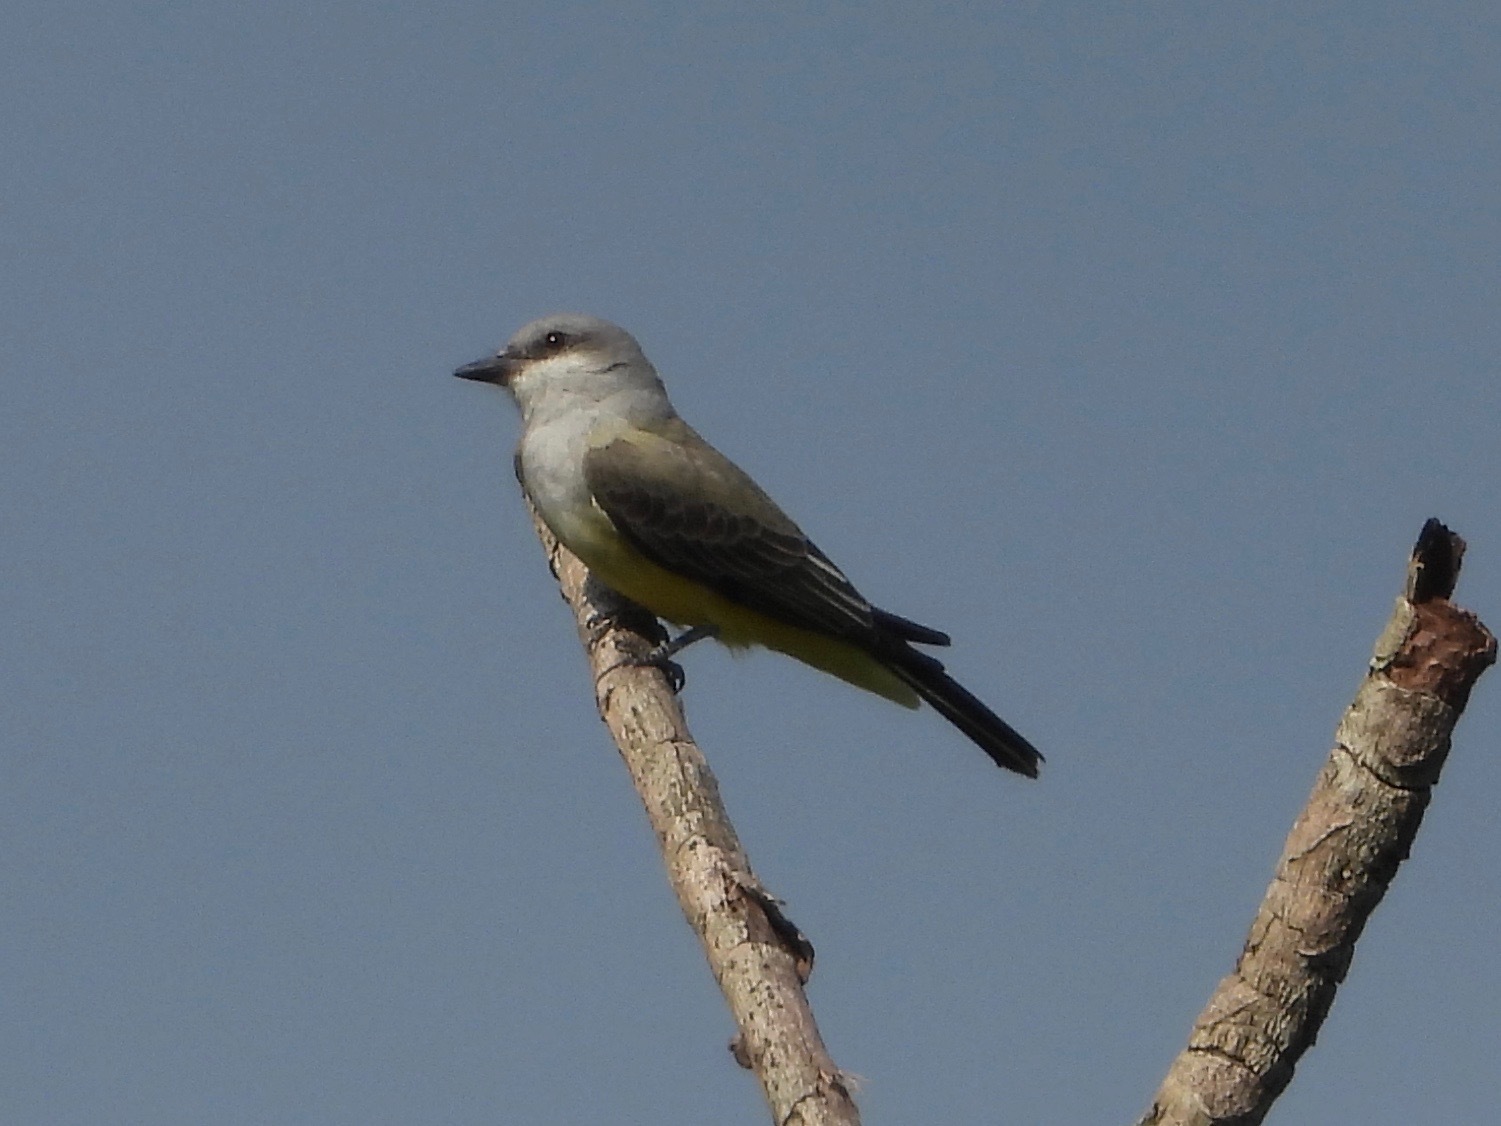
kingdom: Animalia
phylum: Chordata
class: Aves
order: Passeriformes
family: Tyrannidae
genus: Tyrannus
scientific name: Tyrannus verticalis
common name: Western kingbird
